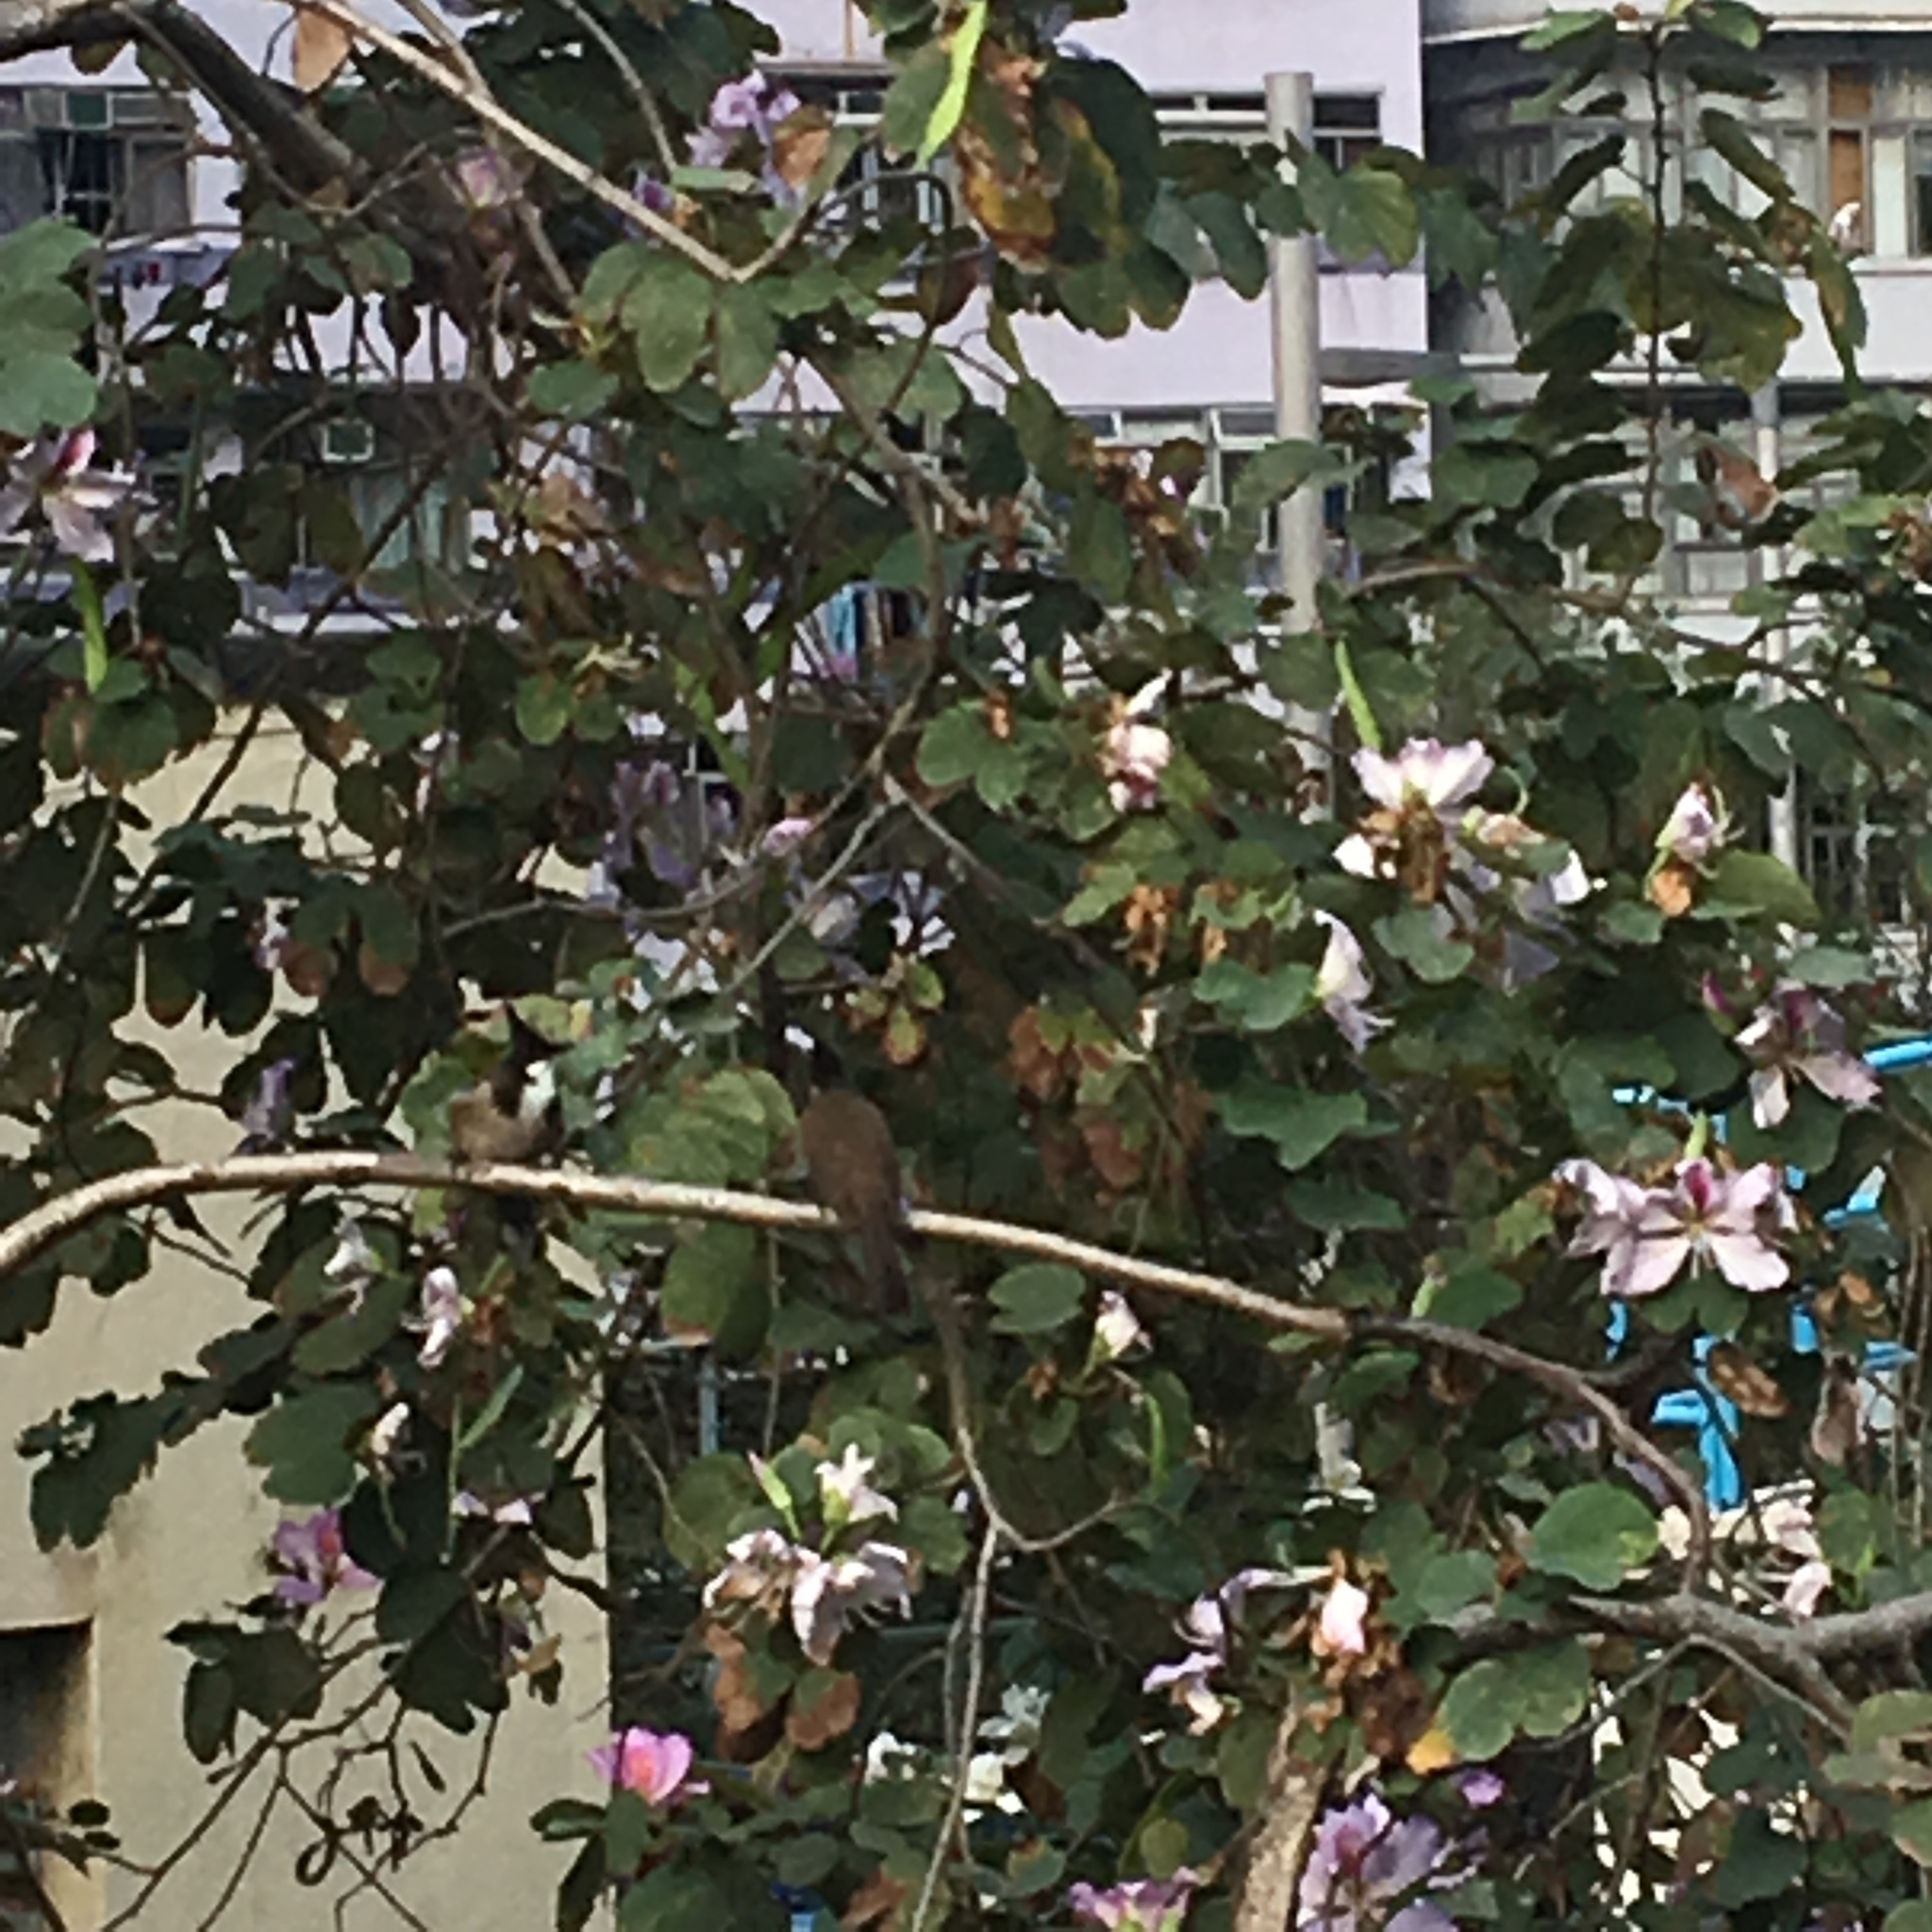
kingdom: Animalia
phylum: Chordata
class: Aves
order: Passeriformes
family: Pycnonotidae
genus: Pycnonotus
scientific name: Pycnonotus jocosus
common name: Red-whiskered bulbul
